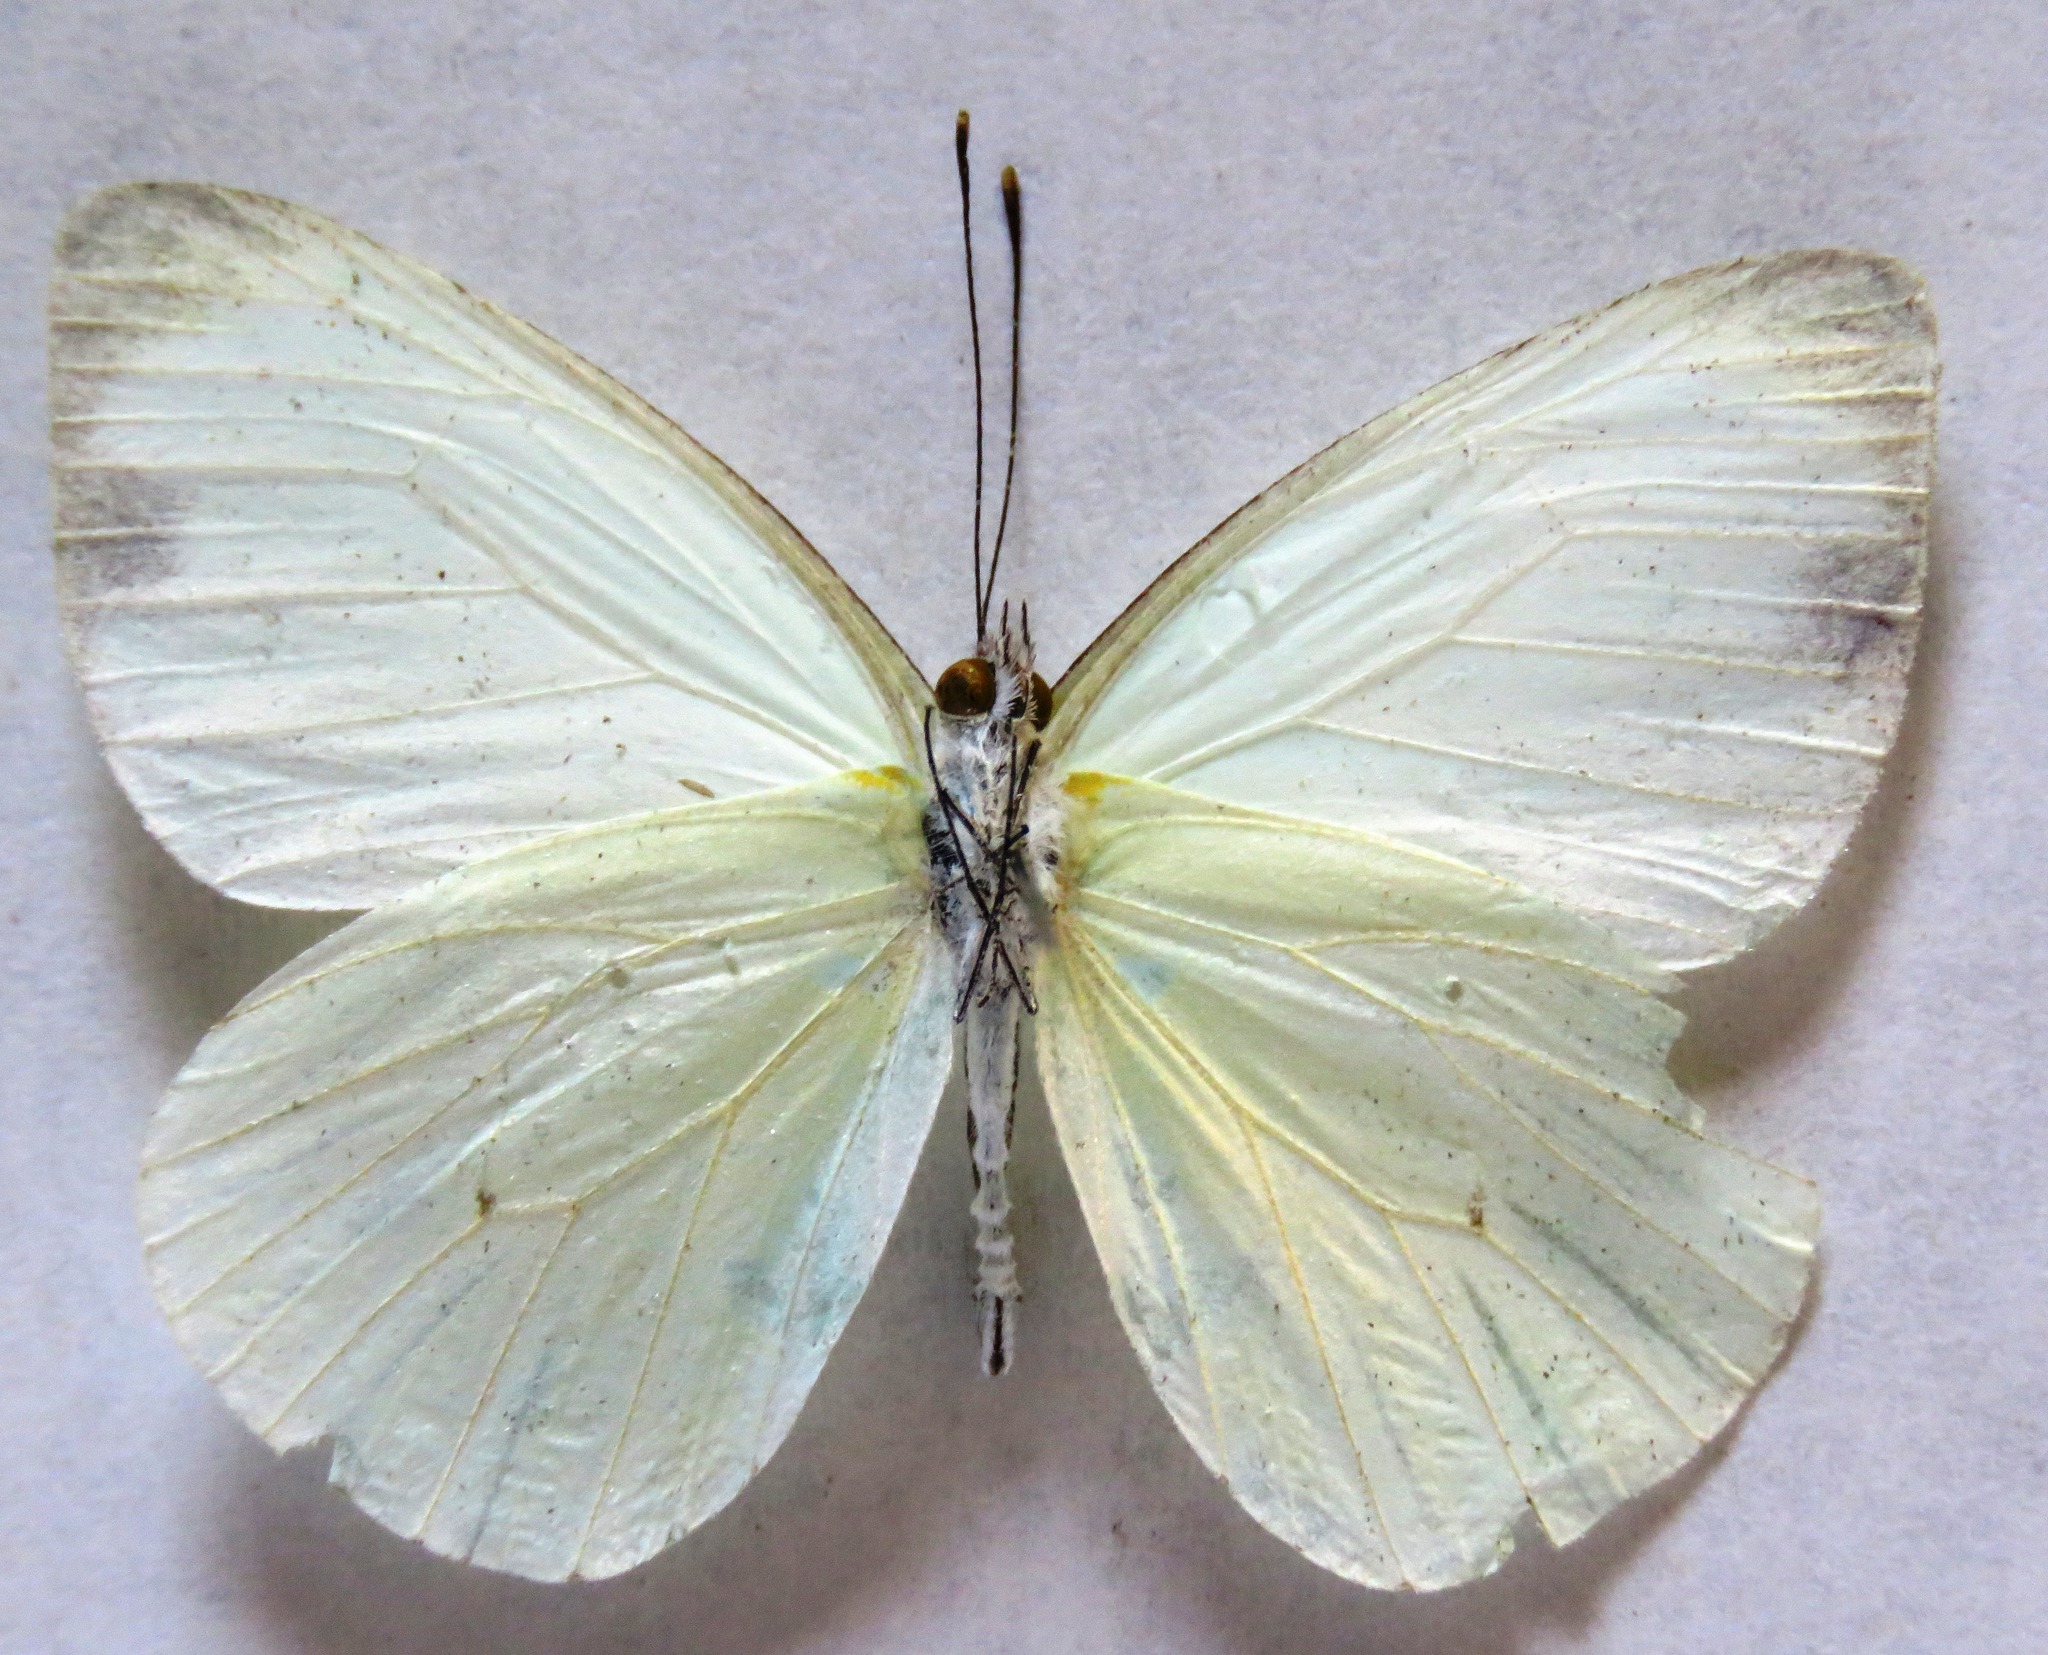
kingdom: Animalia
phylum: Arthropoda
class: Insecta
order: Lepidoptera
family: Pieridae
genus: Leptophobia
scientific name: Leptophobia aripa
